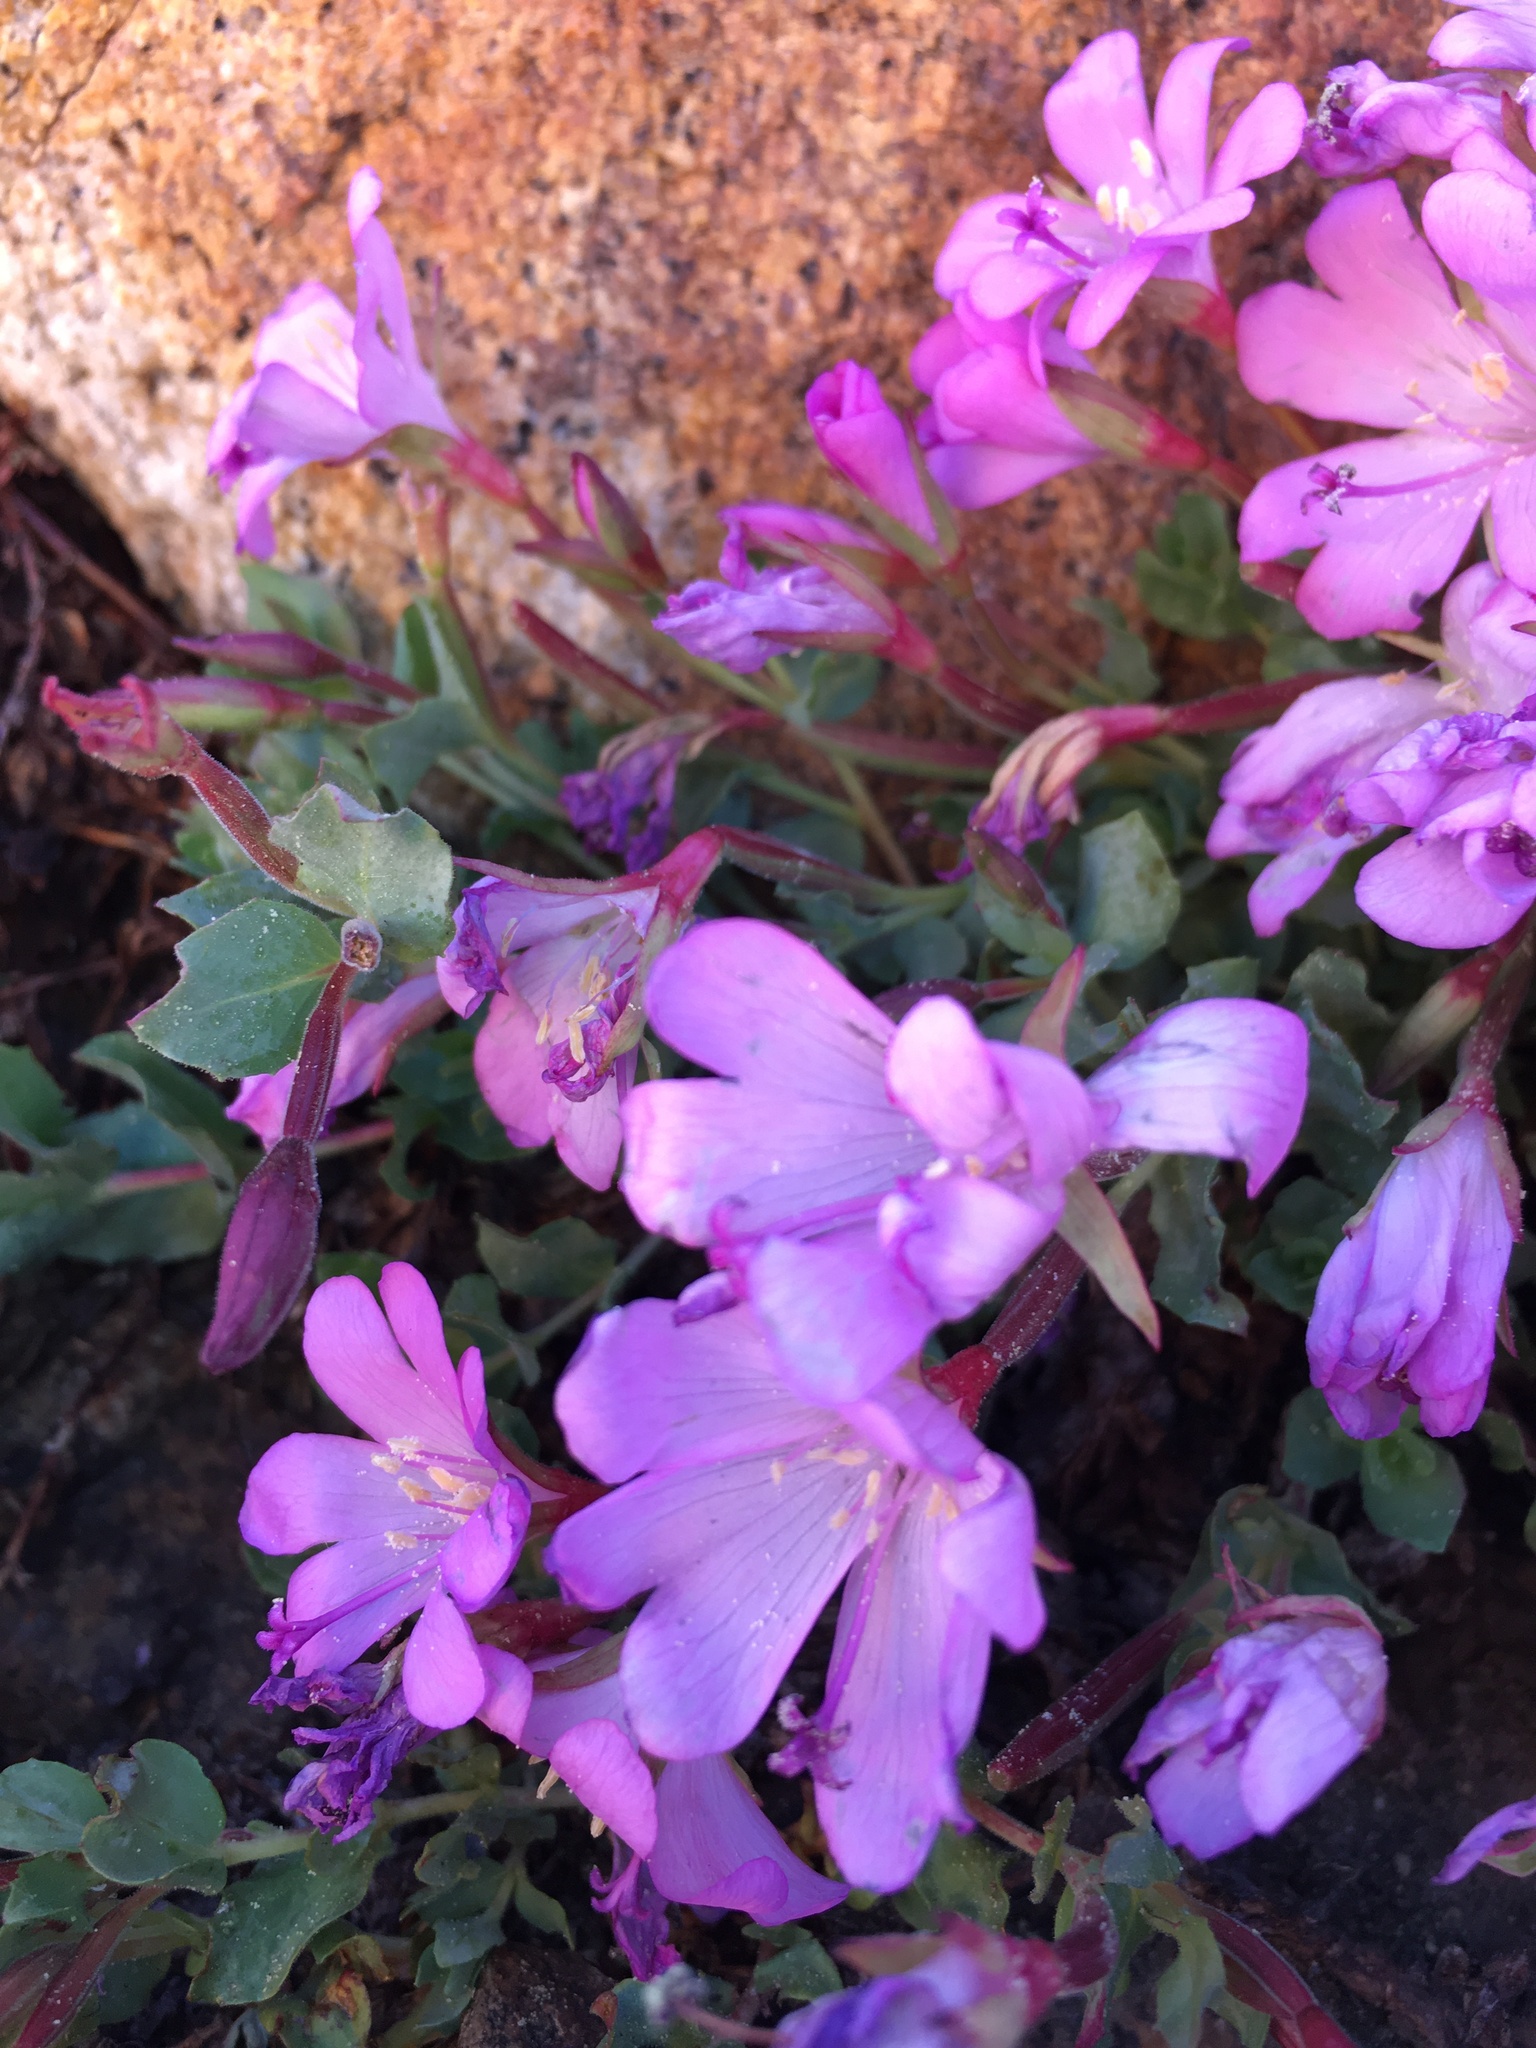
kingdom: Plantae
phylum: Tracheophyta
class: Magnoliopsida
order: Myrtales
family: Onagraceae
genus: Epilobium
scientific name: Epilobium obcordatum
